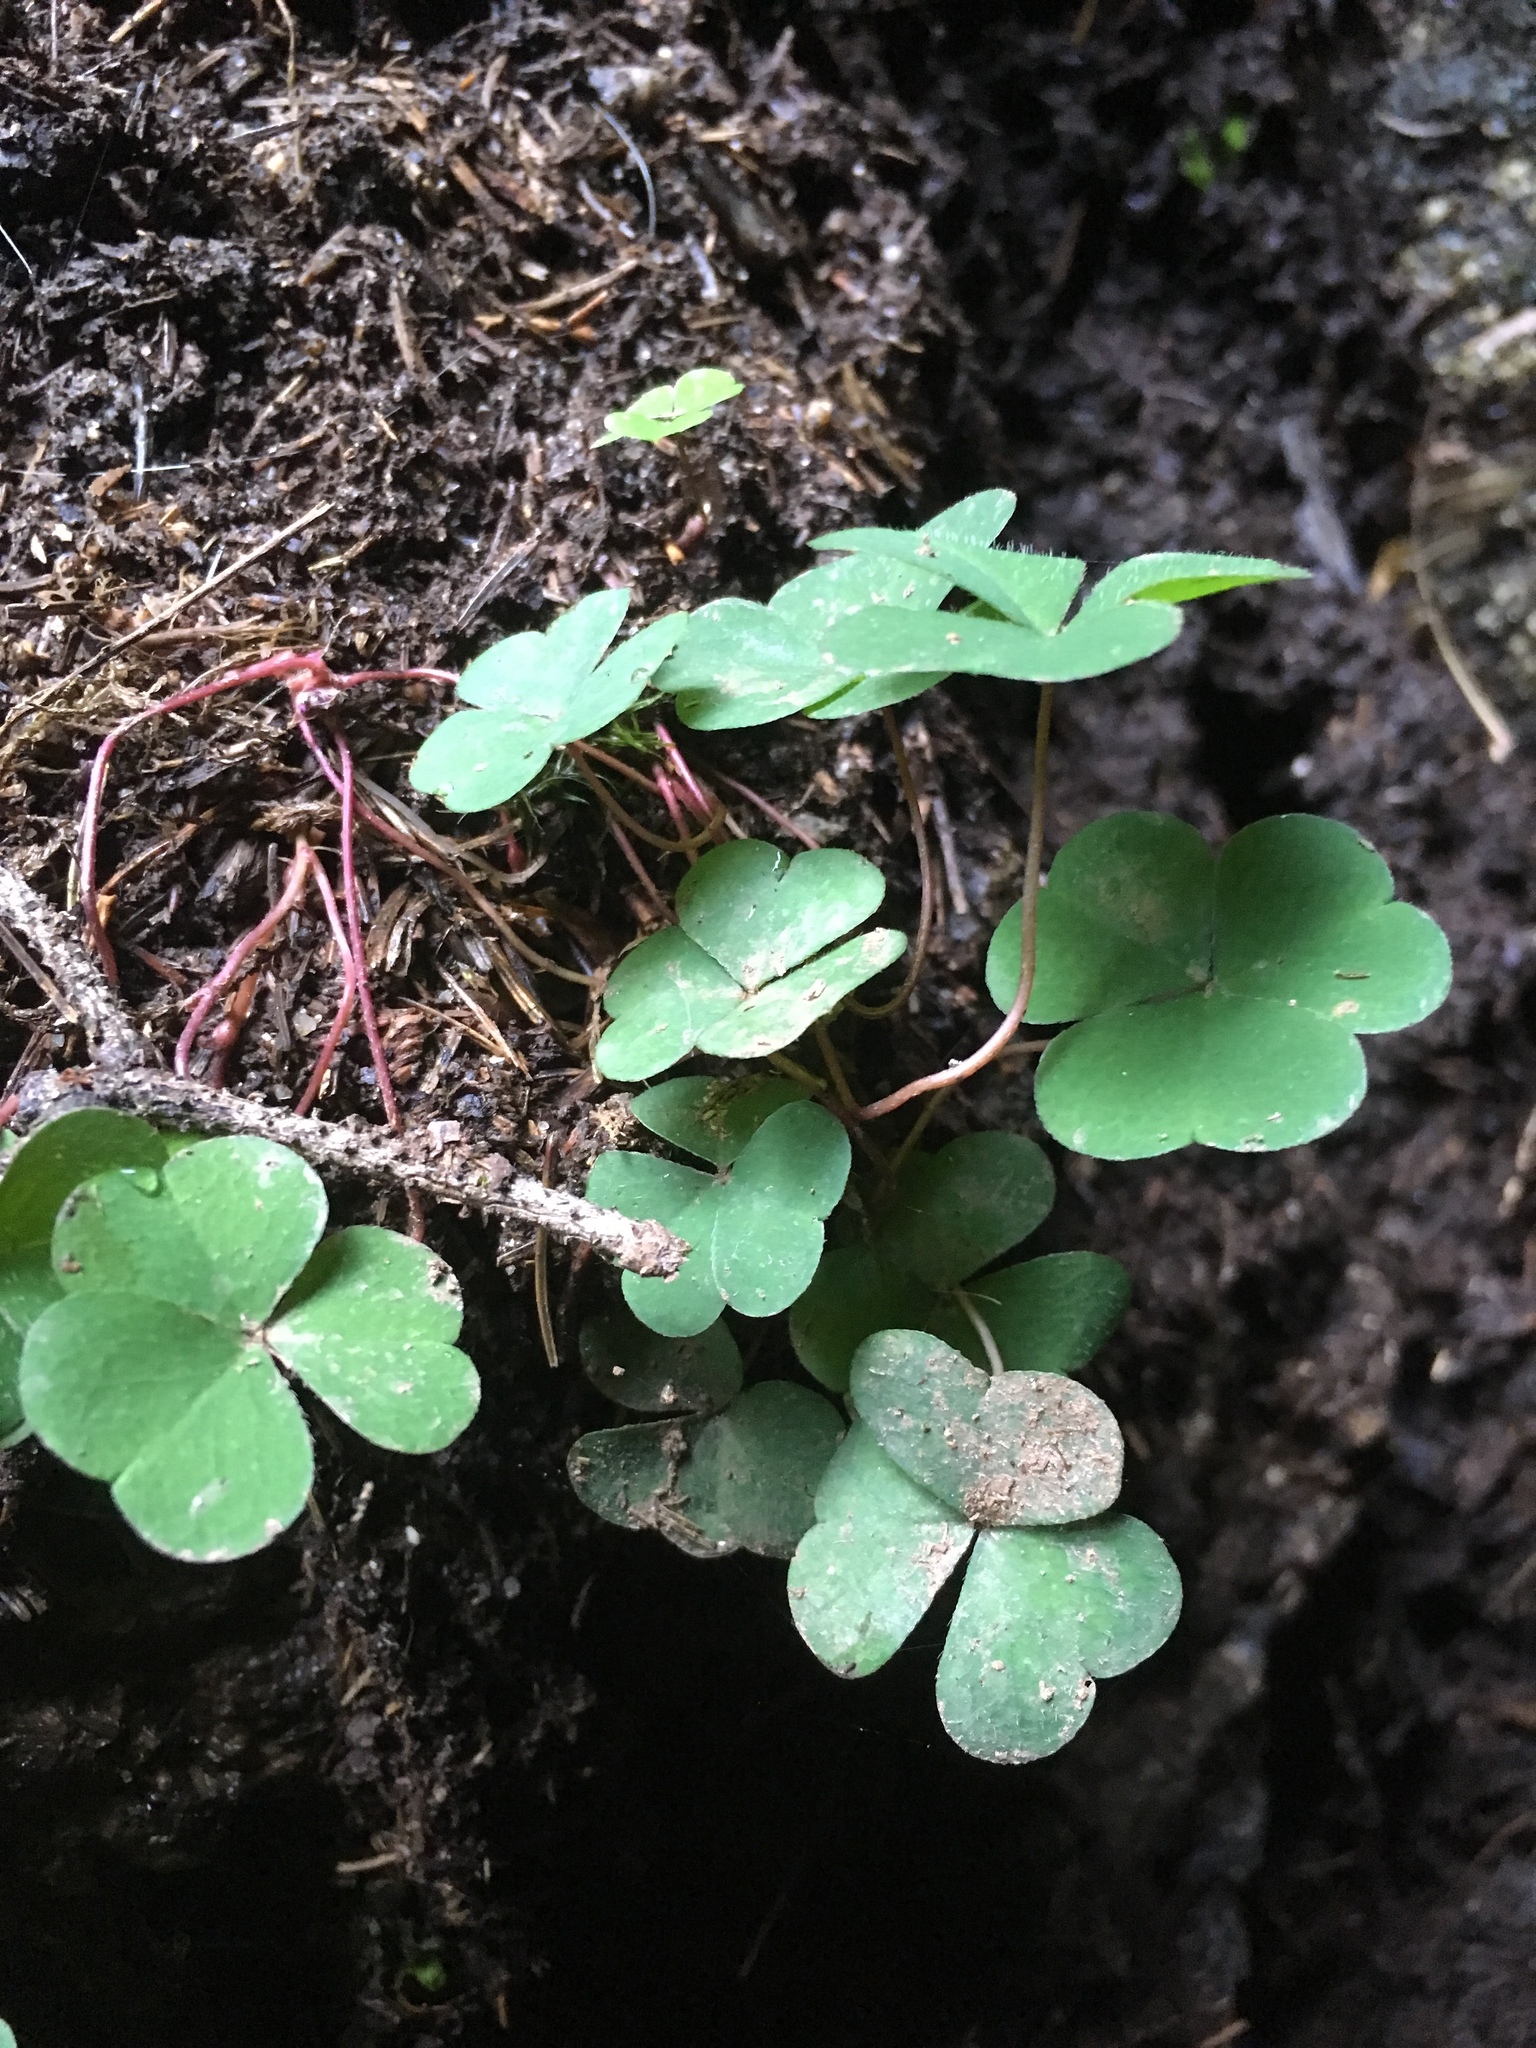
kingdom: Plantae
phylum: Tracheophyta
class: Magnoliopsida
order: Oxalidales
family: Oxalidaceae
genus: Oxalis
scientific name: Oxalis acetosella
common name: Wood-sorrel
